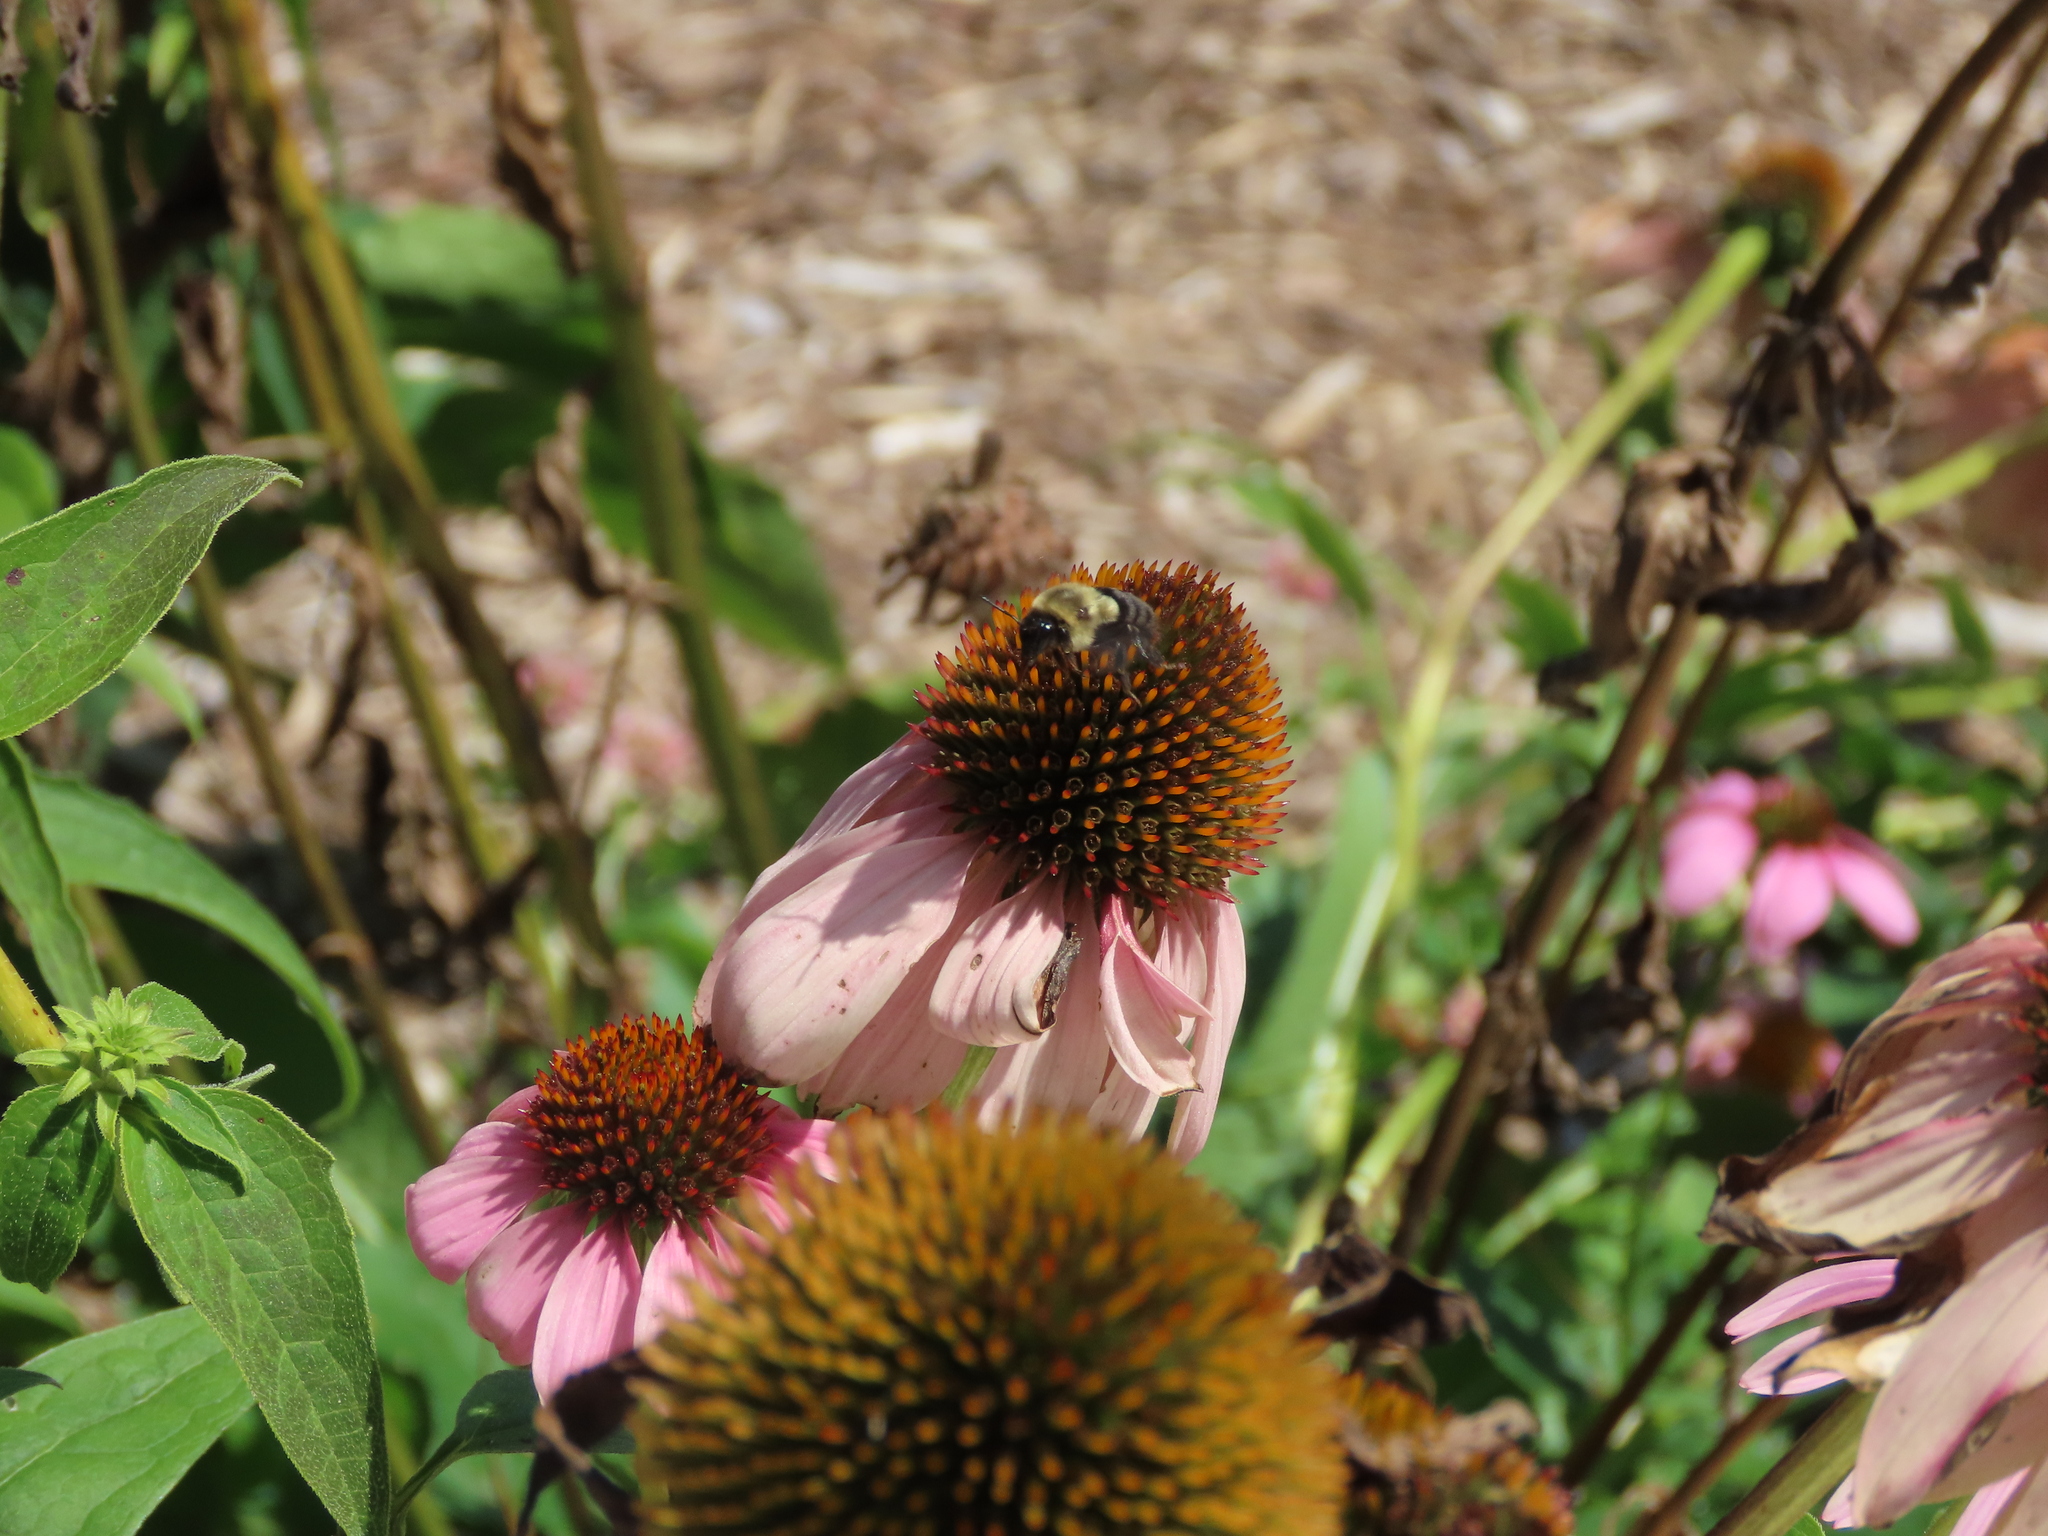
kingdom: Animalia
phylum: Arthropoda
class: Insecta
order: Hymenoptera
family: Apidae
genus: Bombus
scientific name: Bombus impatiens
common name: Common eastern bumble bee
